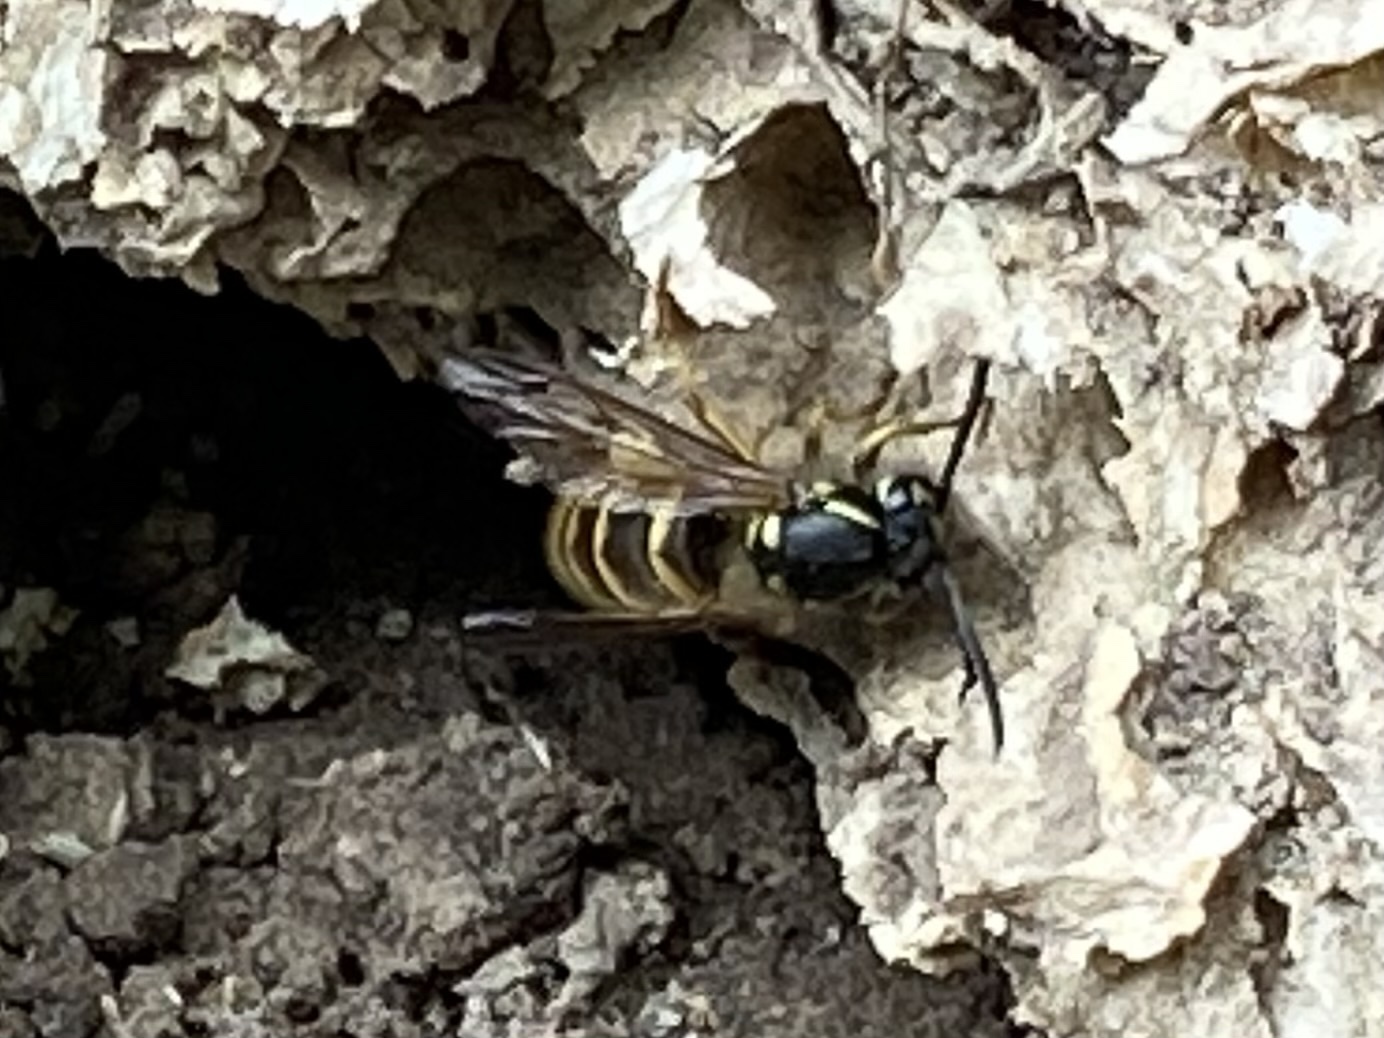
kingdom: Animalia
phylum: Arthropoda
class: Insecta
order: Hymenoptera
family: Vespidae
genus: Vespula
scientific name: Vespula vulgaris
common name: Common wasp
